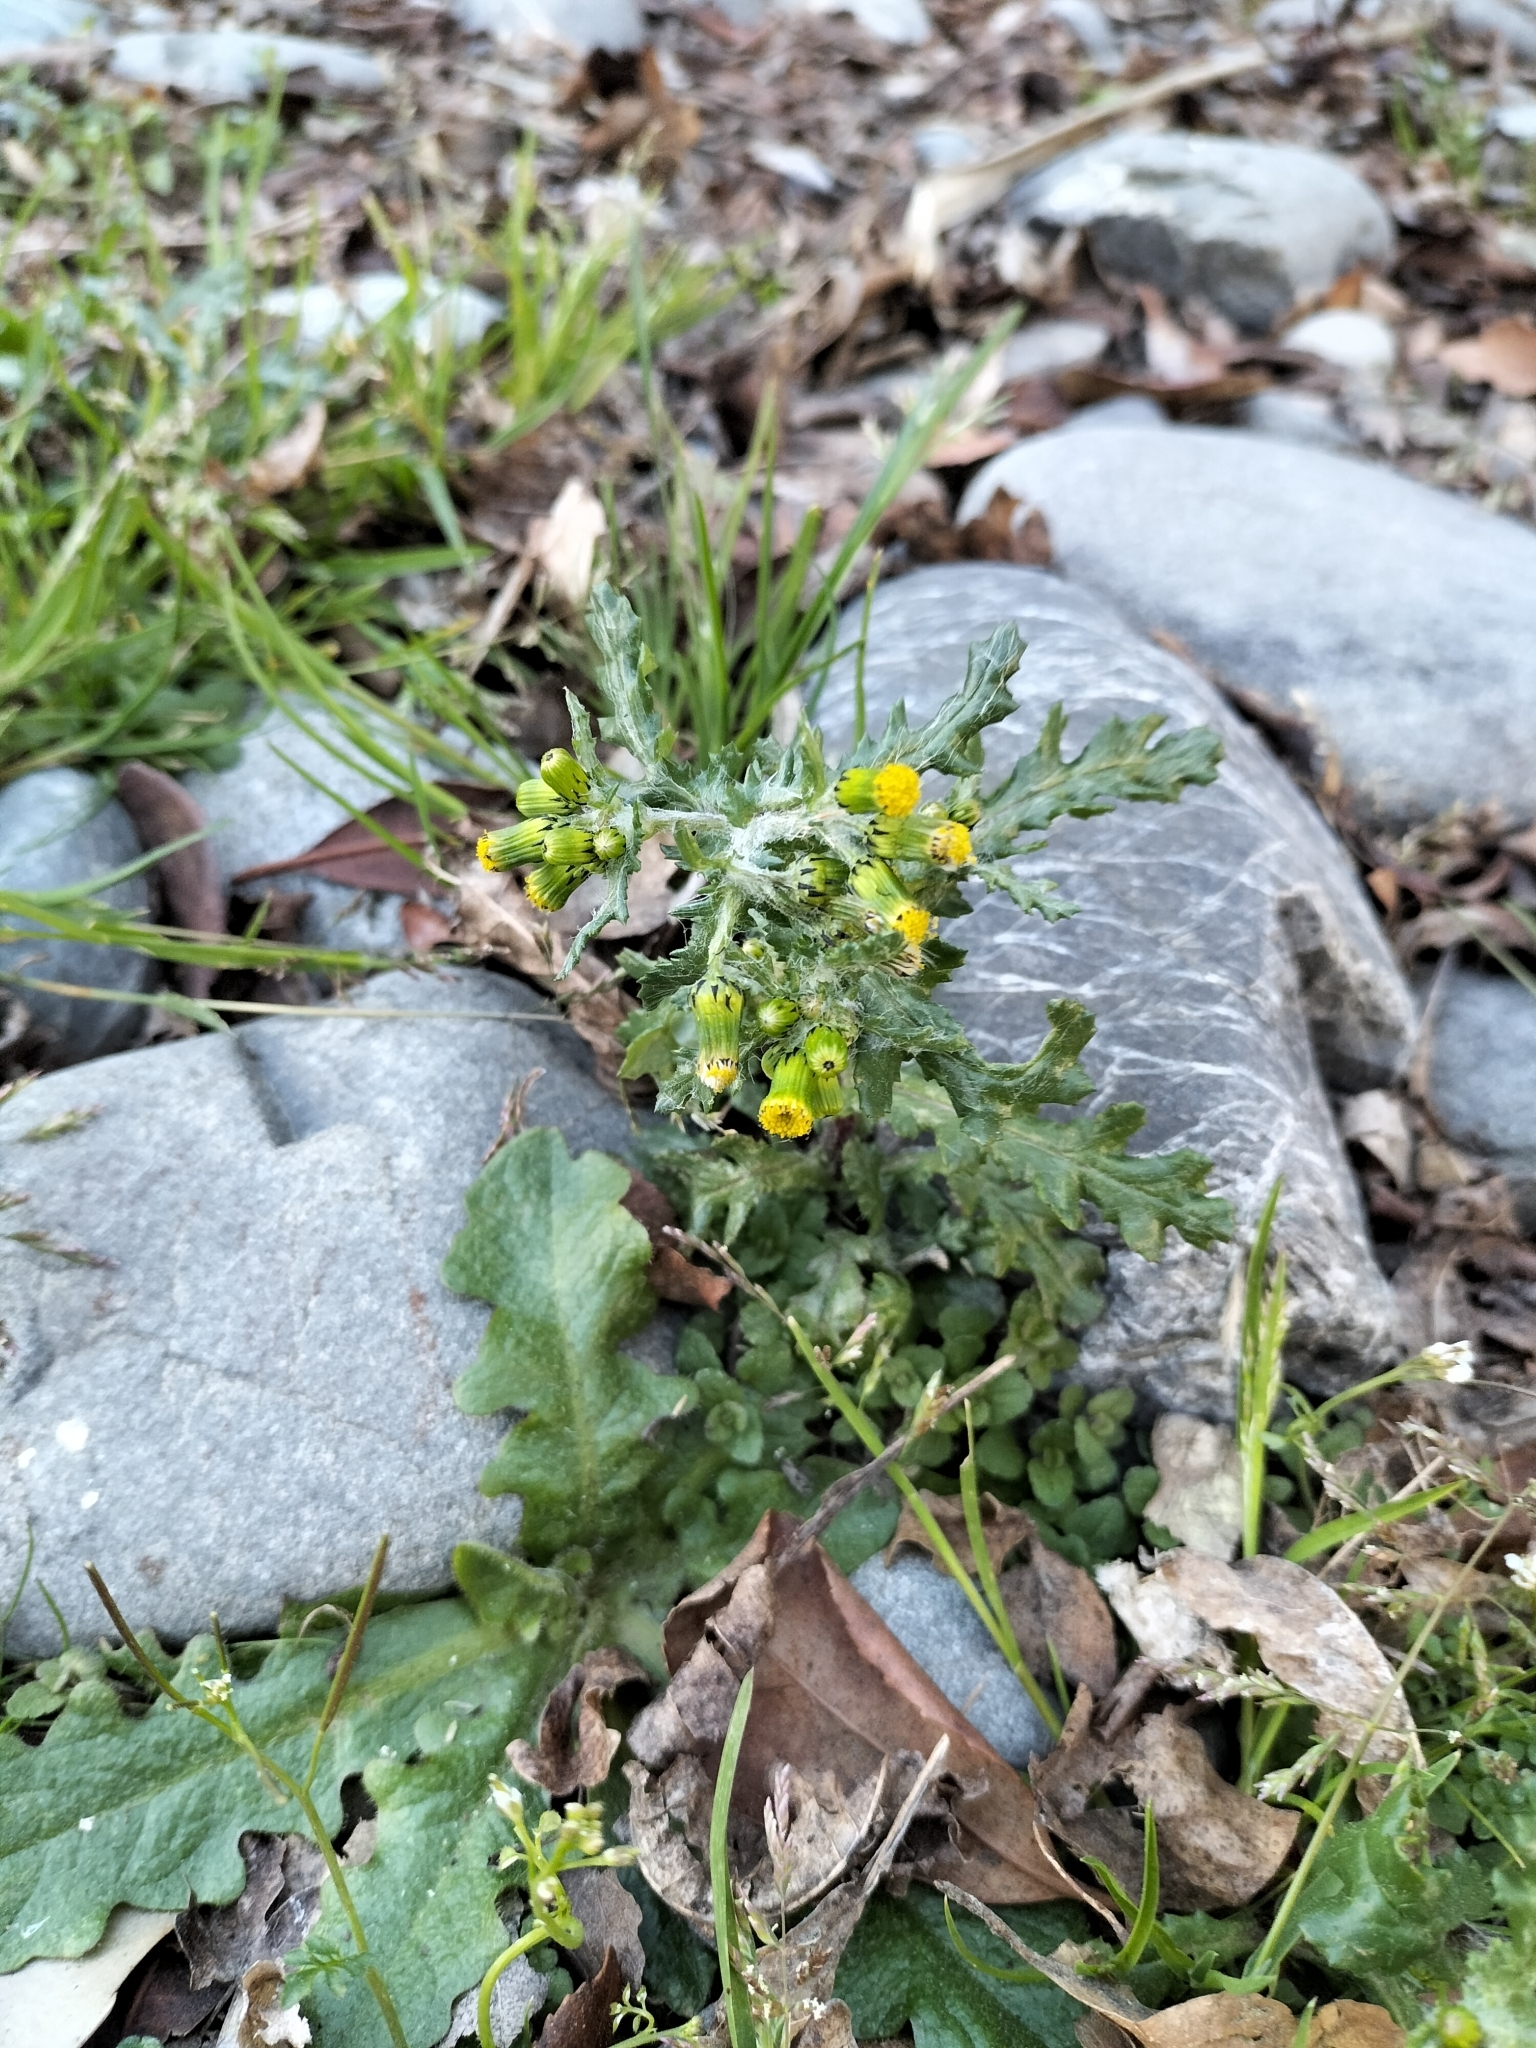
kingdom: Plantae
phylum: Tracheophyta
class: Magnoliopsida
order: Asterales
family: Asteraceae
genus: Senecio
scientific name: Senecio vulgaris
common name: Old-man-in-the-spring
